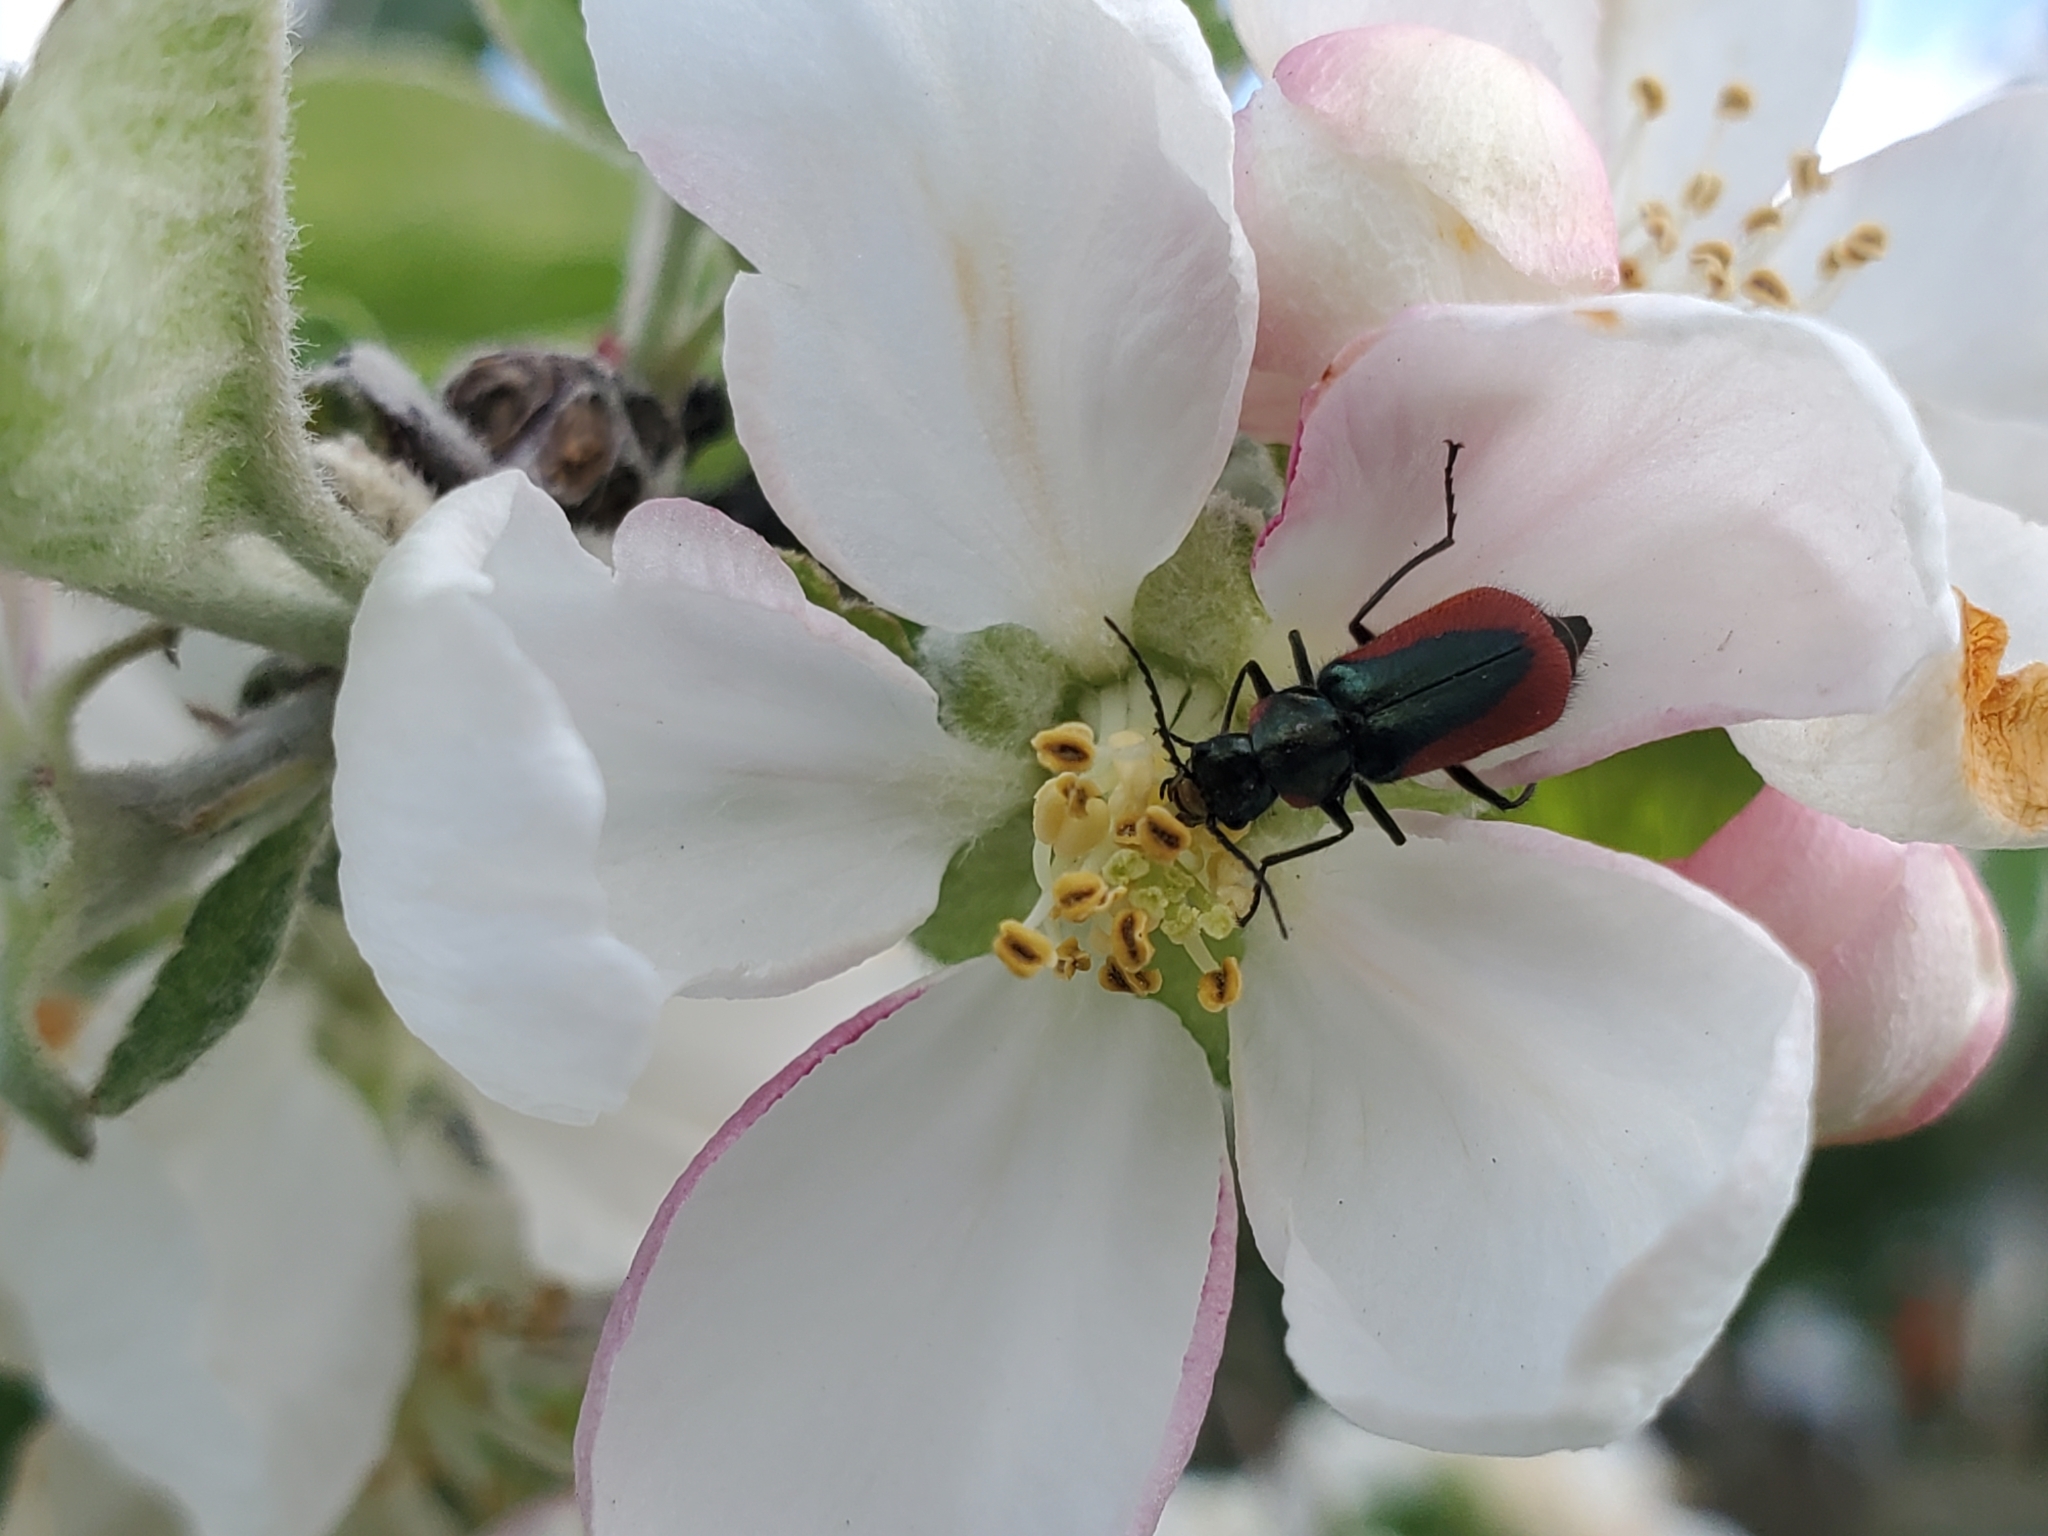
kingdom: Animalia
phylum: Arthropoda
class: Insecta
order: Coleoptera
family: Melyridae
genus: Malachius
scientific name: Malachius aeneus
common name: Scarlet malachite beetle
